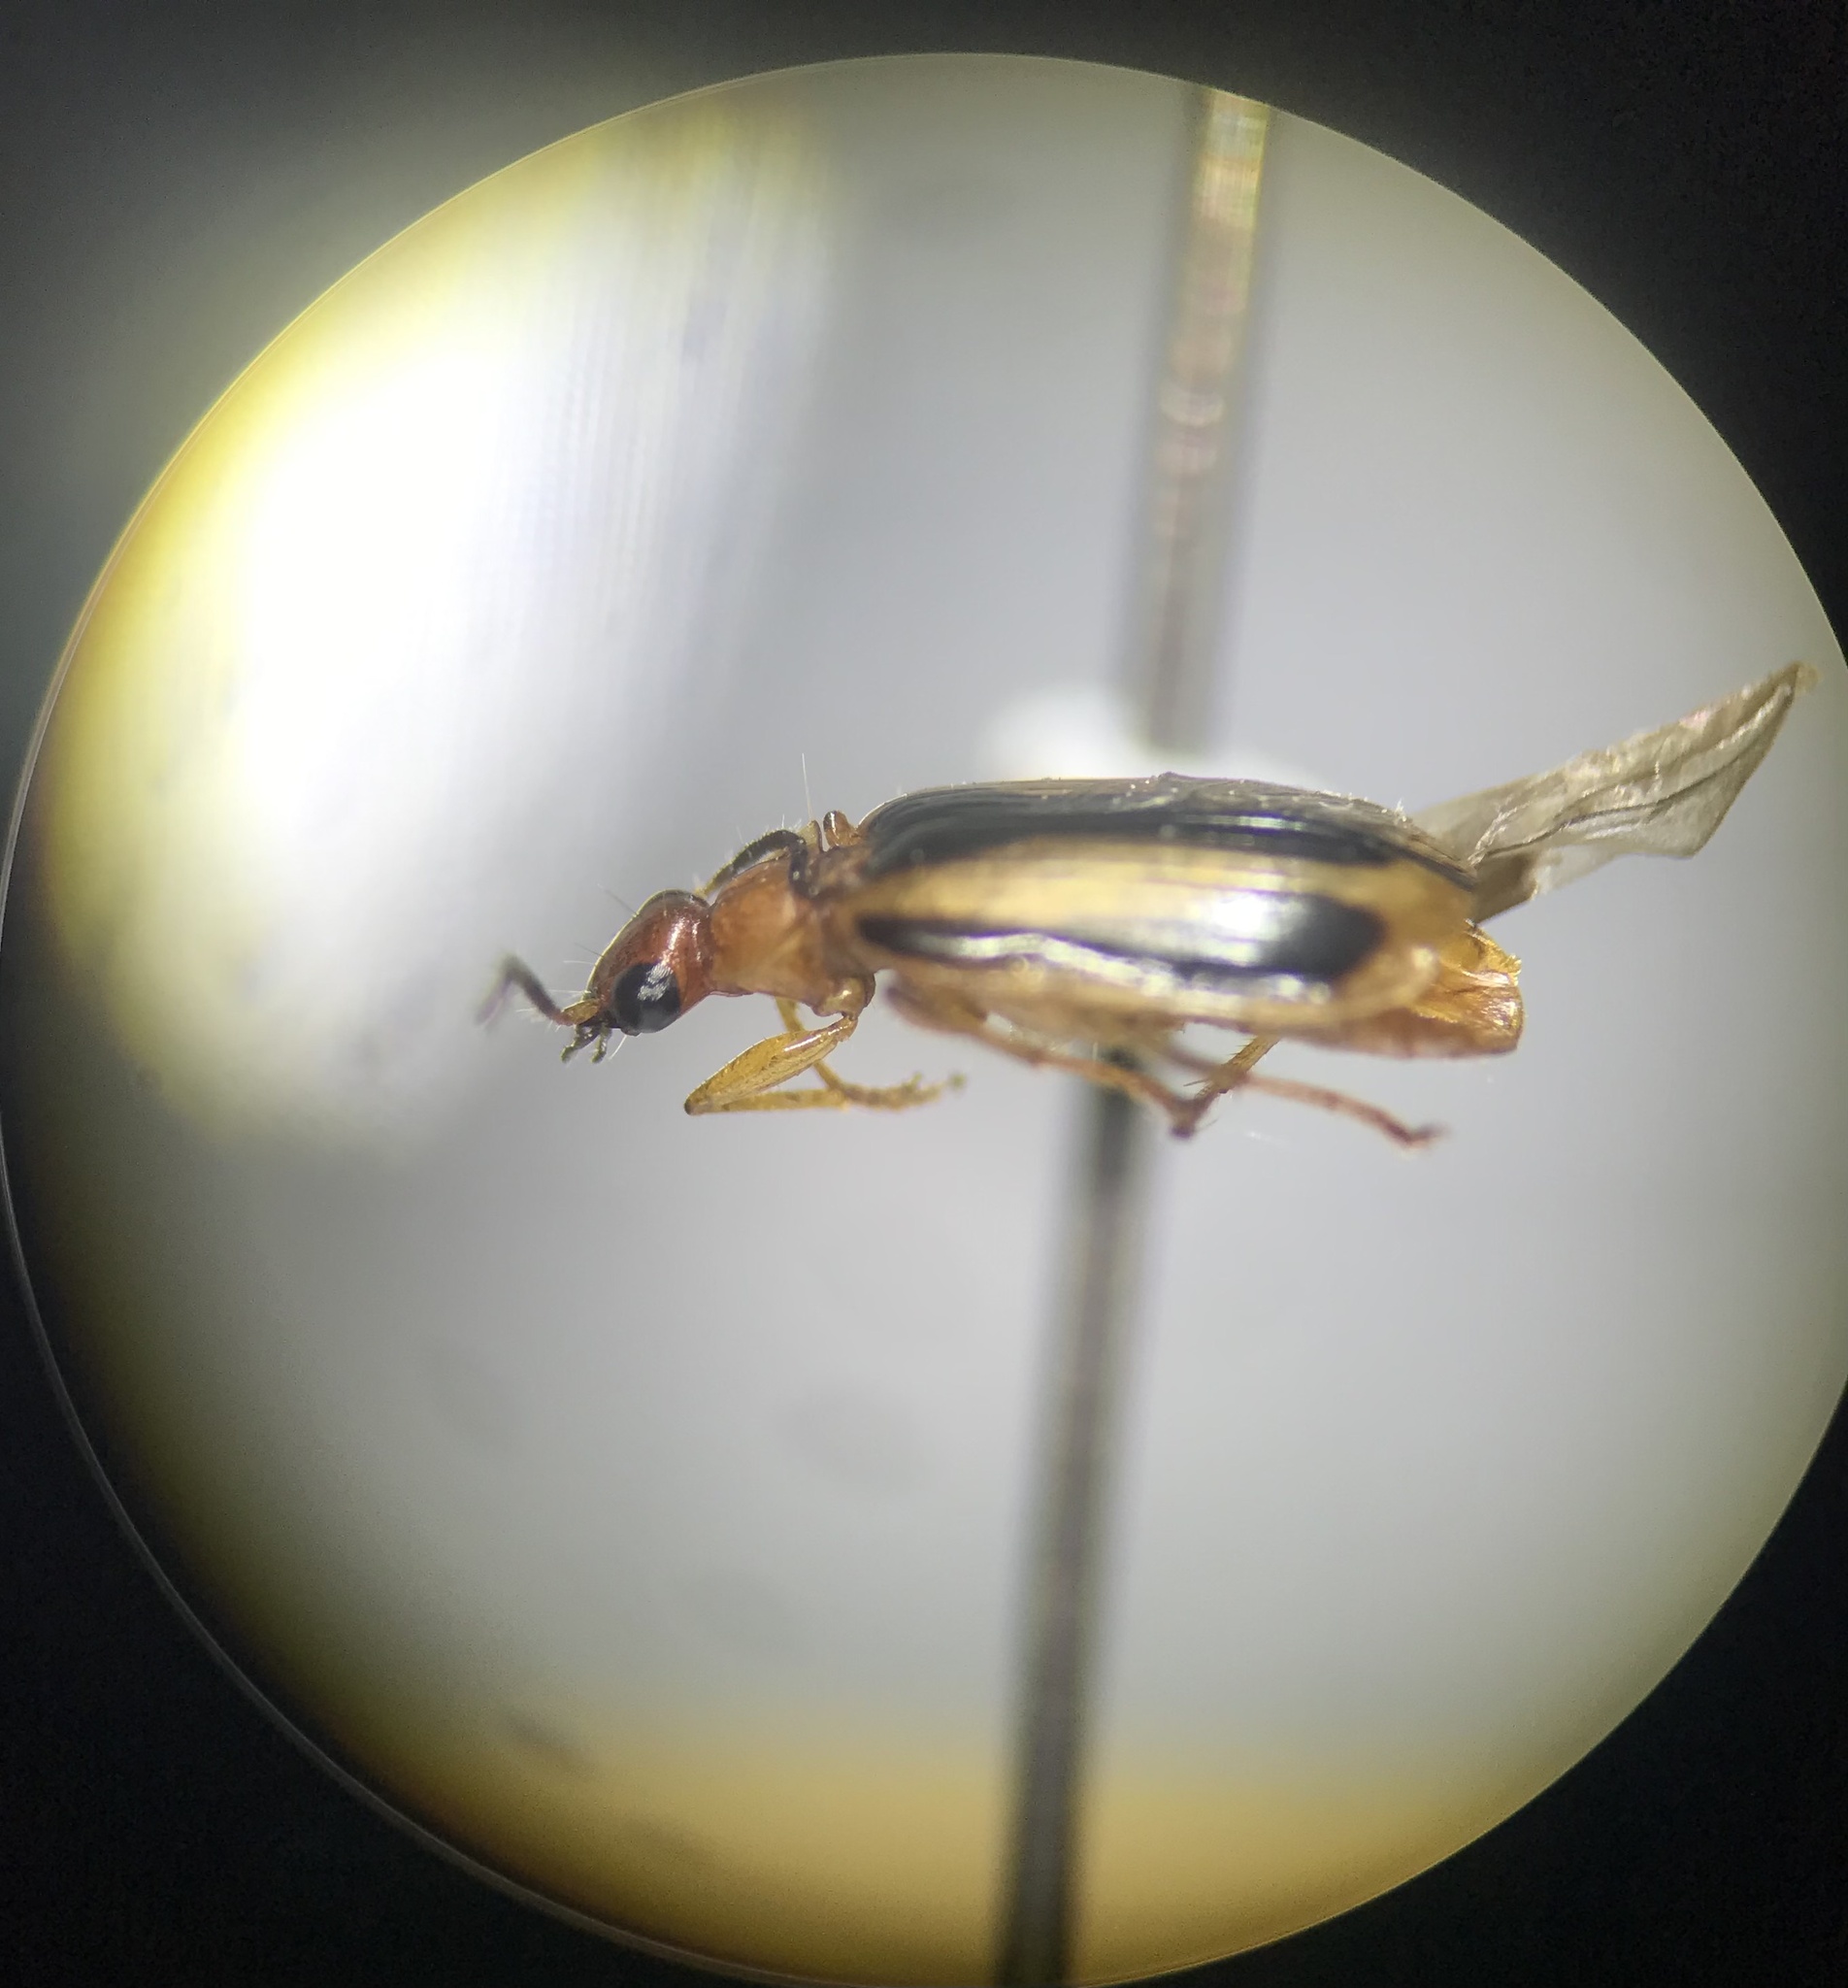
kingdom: Animalia
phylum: Arthropoda
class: Insecta
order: Coleoptera
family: Carabidae
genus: Lebia
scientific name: Lebia solea
